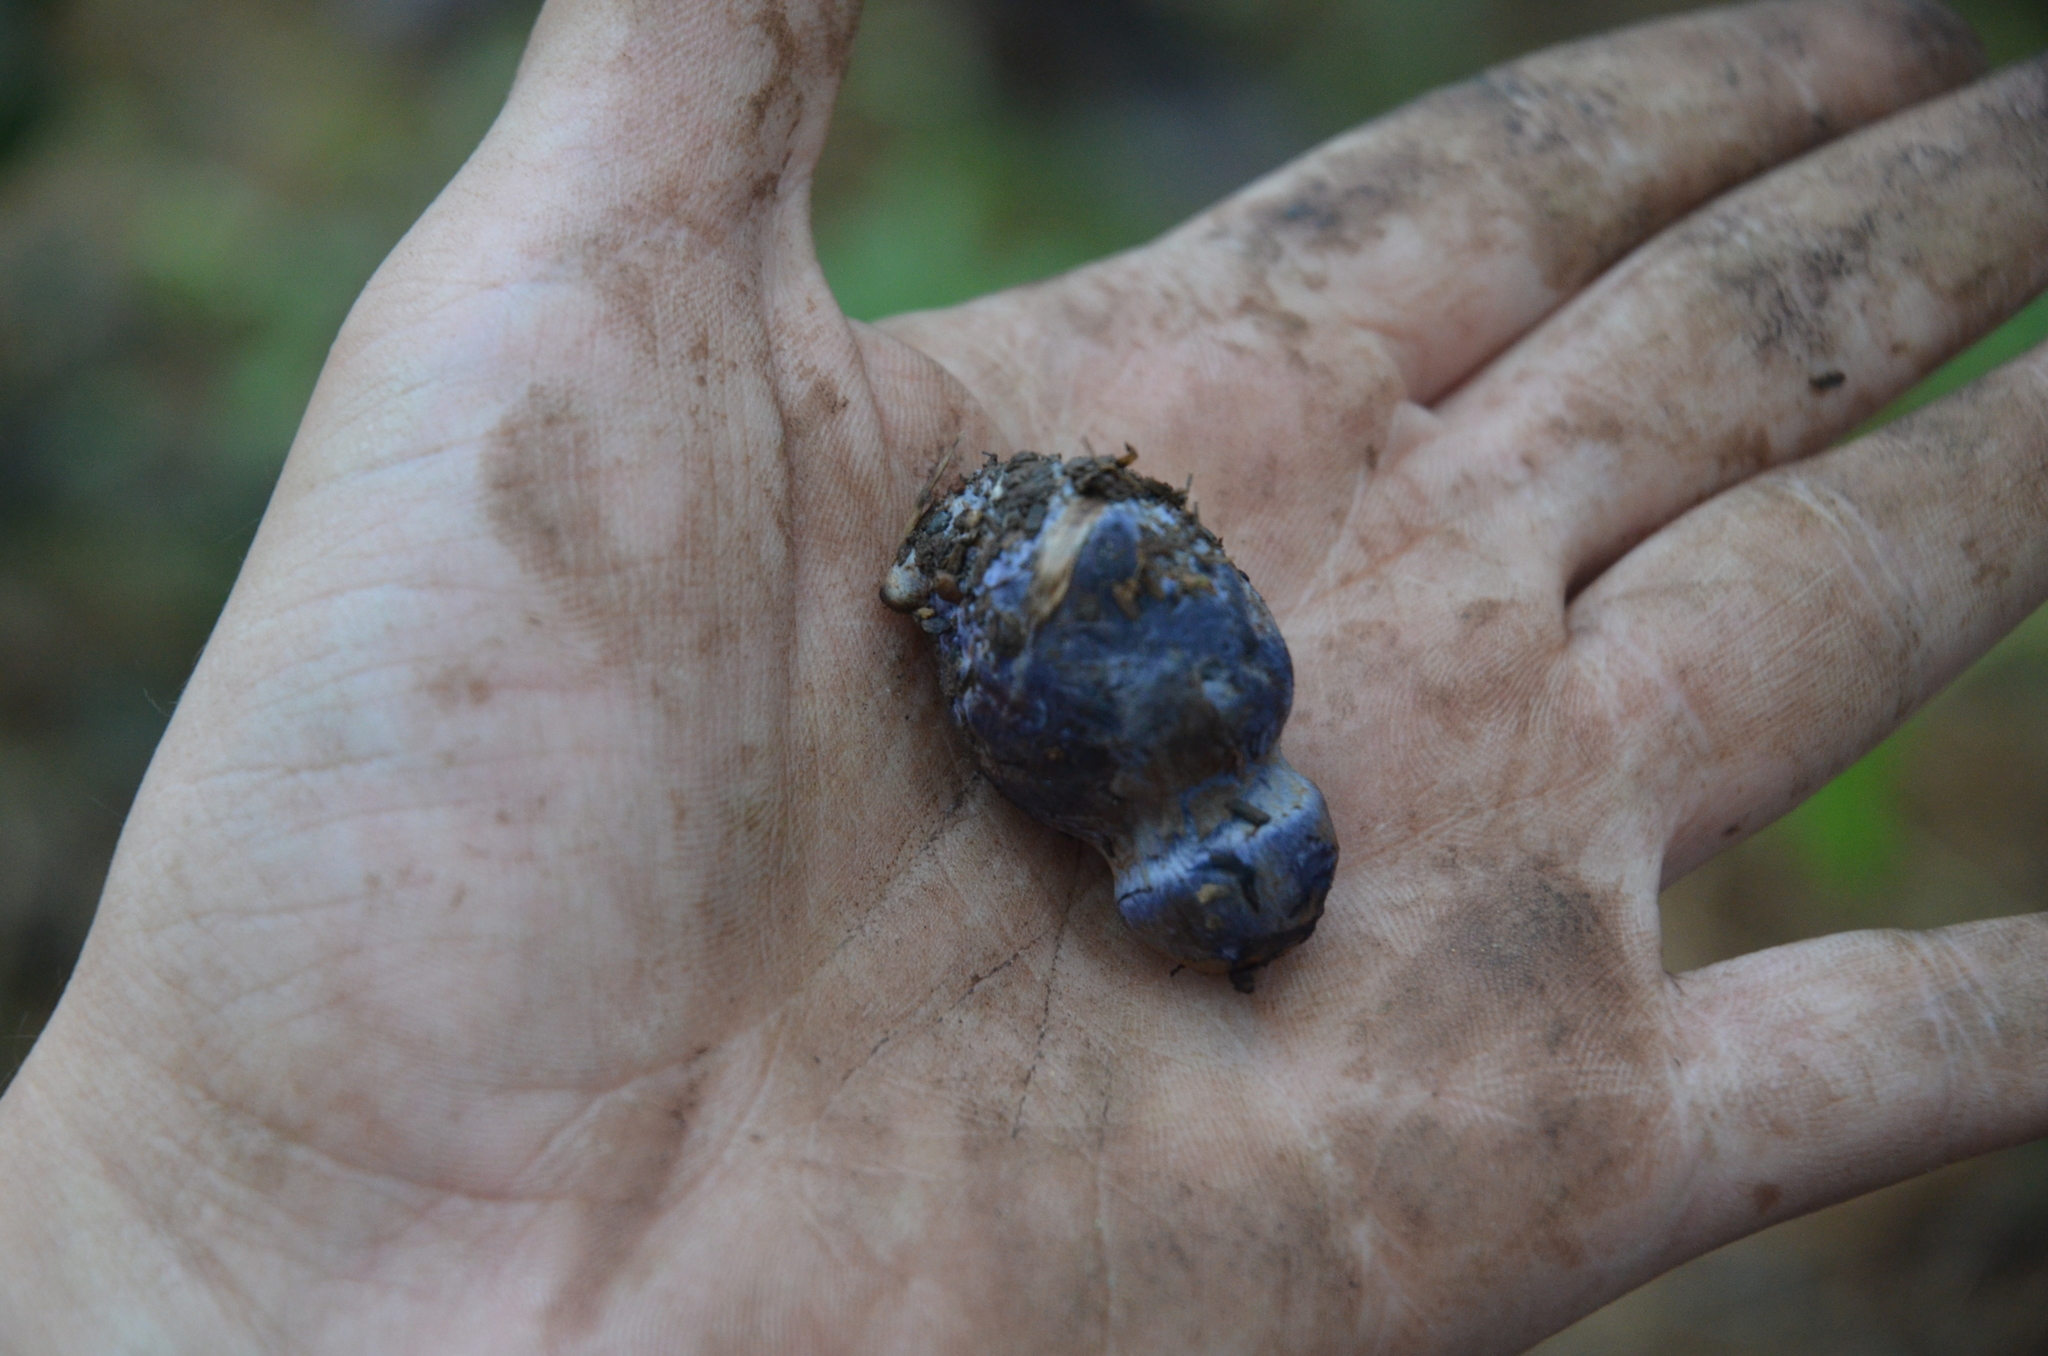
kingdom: Fungi
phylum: Basidiomycota
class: Agaricomycetes
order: Russulales
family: Russulaceae
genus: Lactarius
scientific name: Lactarius indigo
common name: Indigo milk cap
